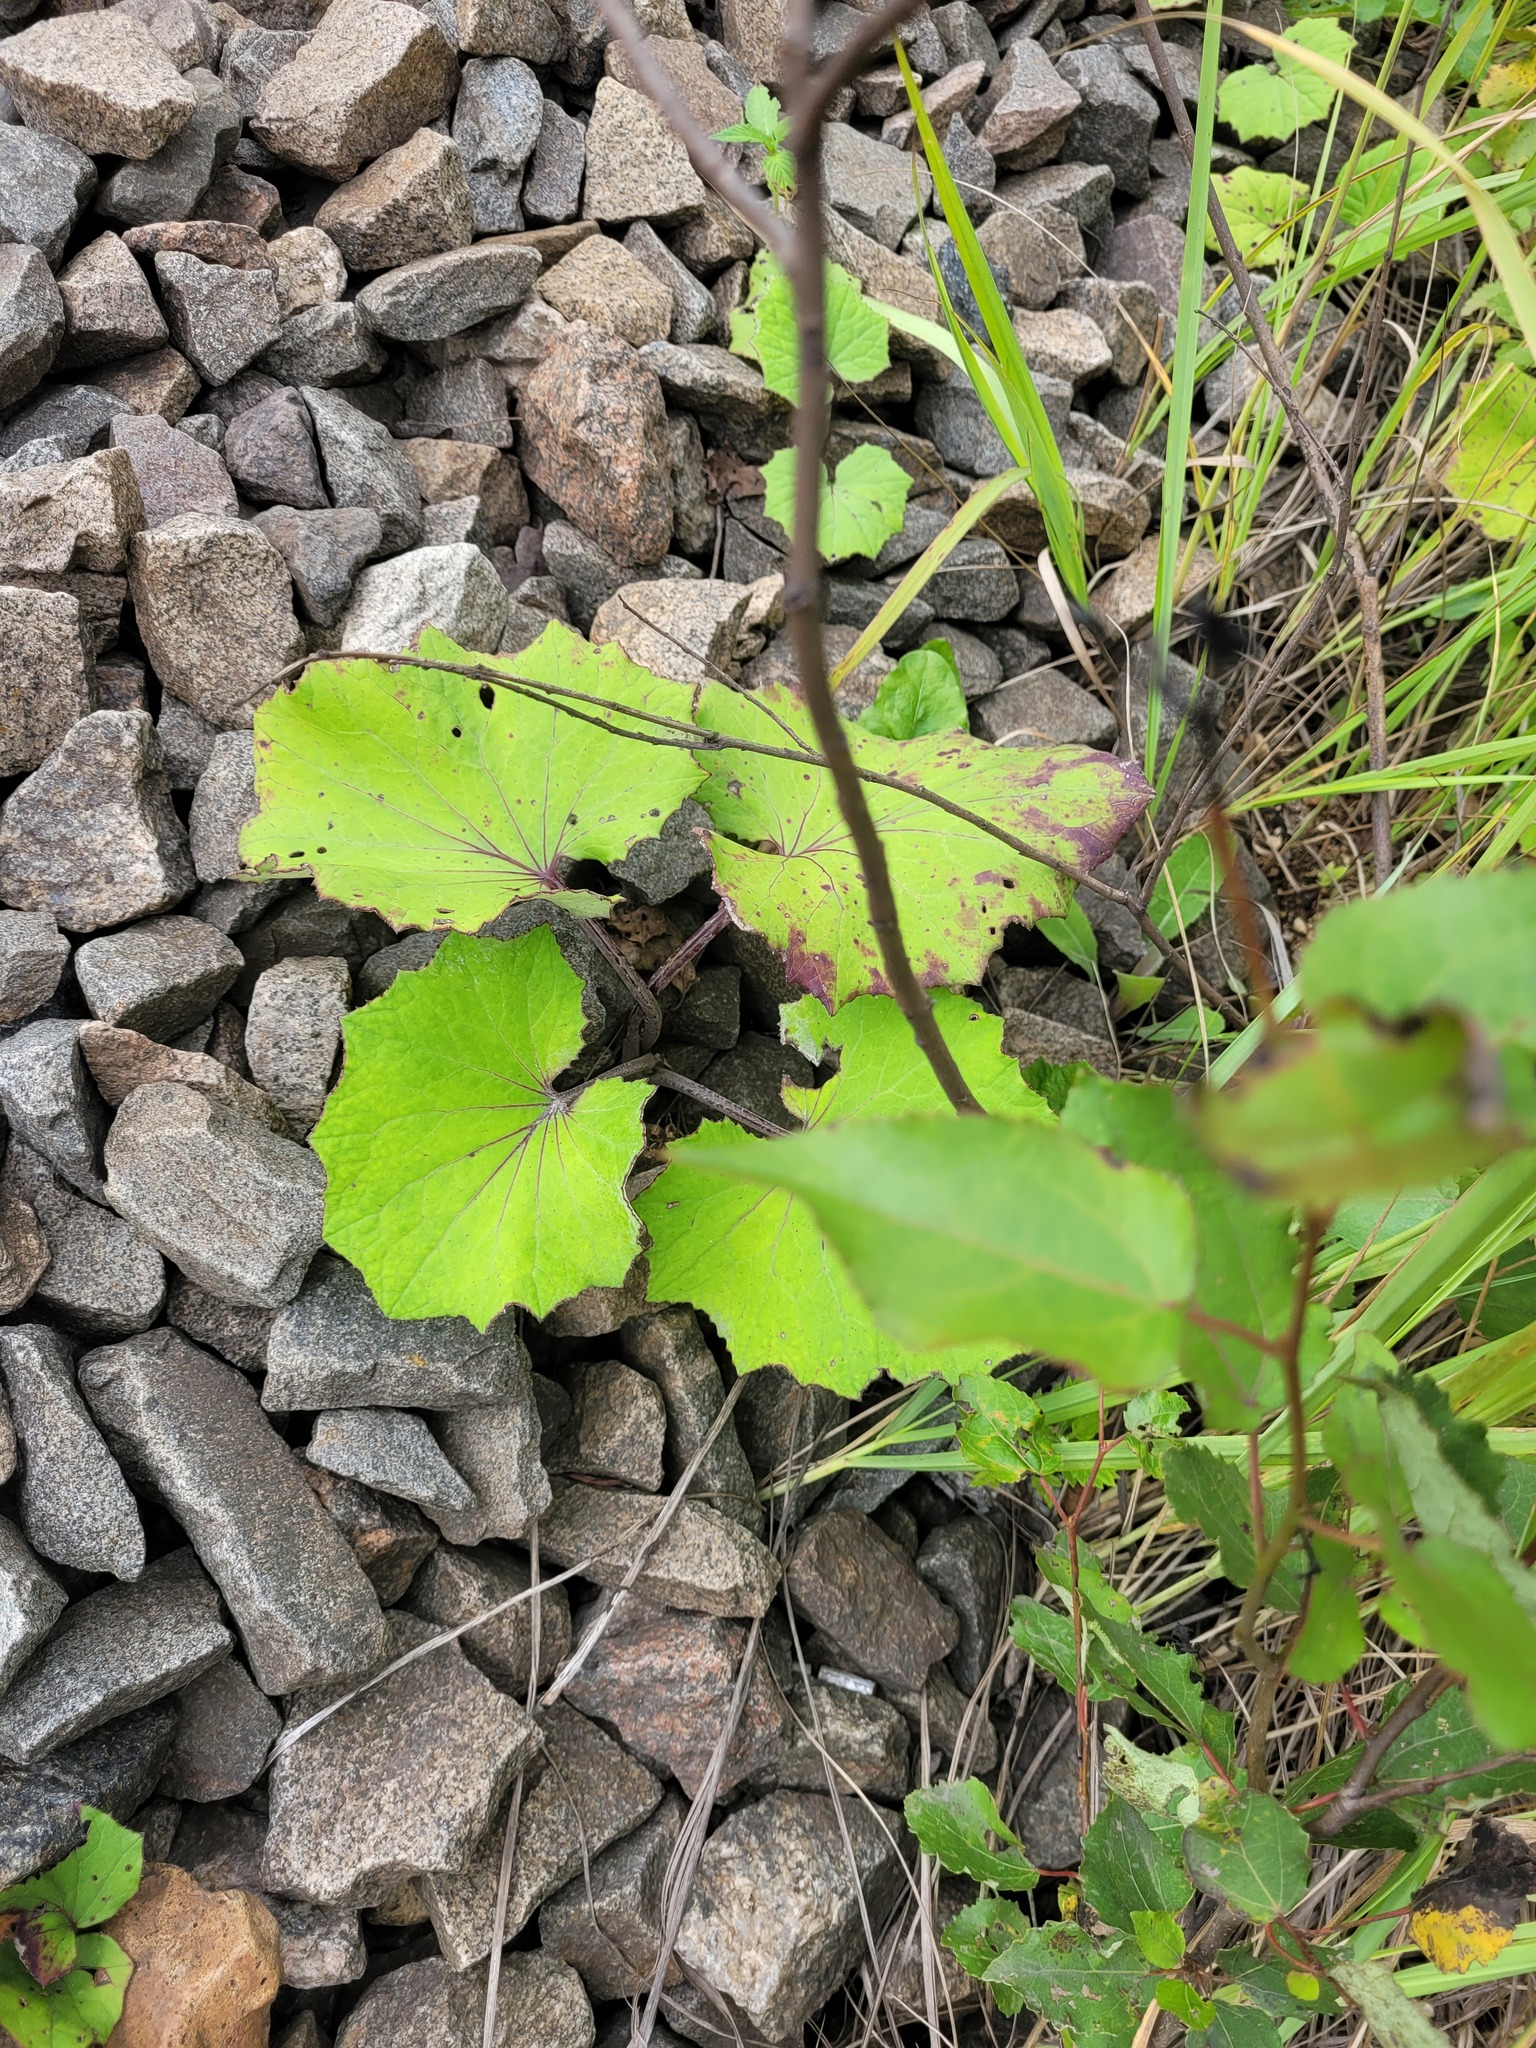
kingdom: Plantae
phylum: Tracheophyta
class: Magnoliopsida
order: Asterales
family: Asteraceae
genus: Tussilago
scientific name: Tussilago farfara
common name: Coltsfoot
